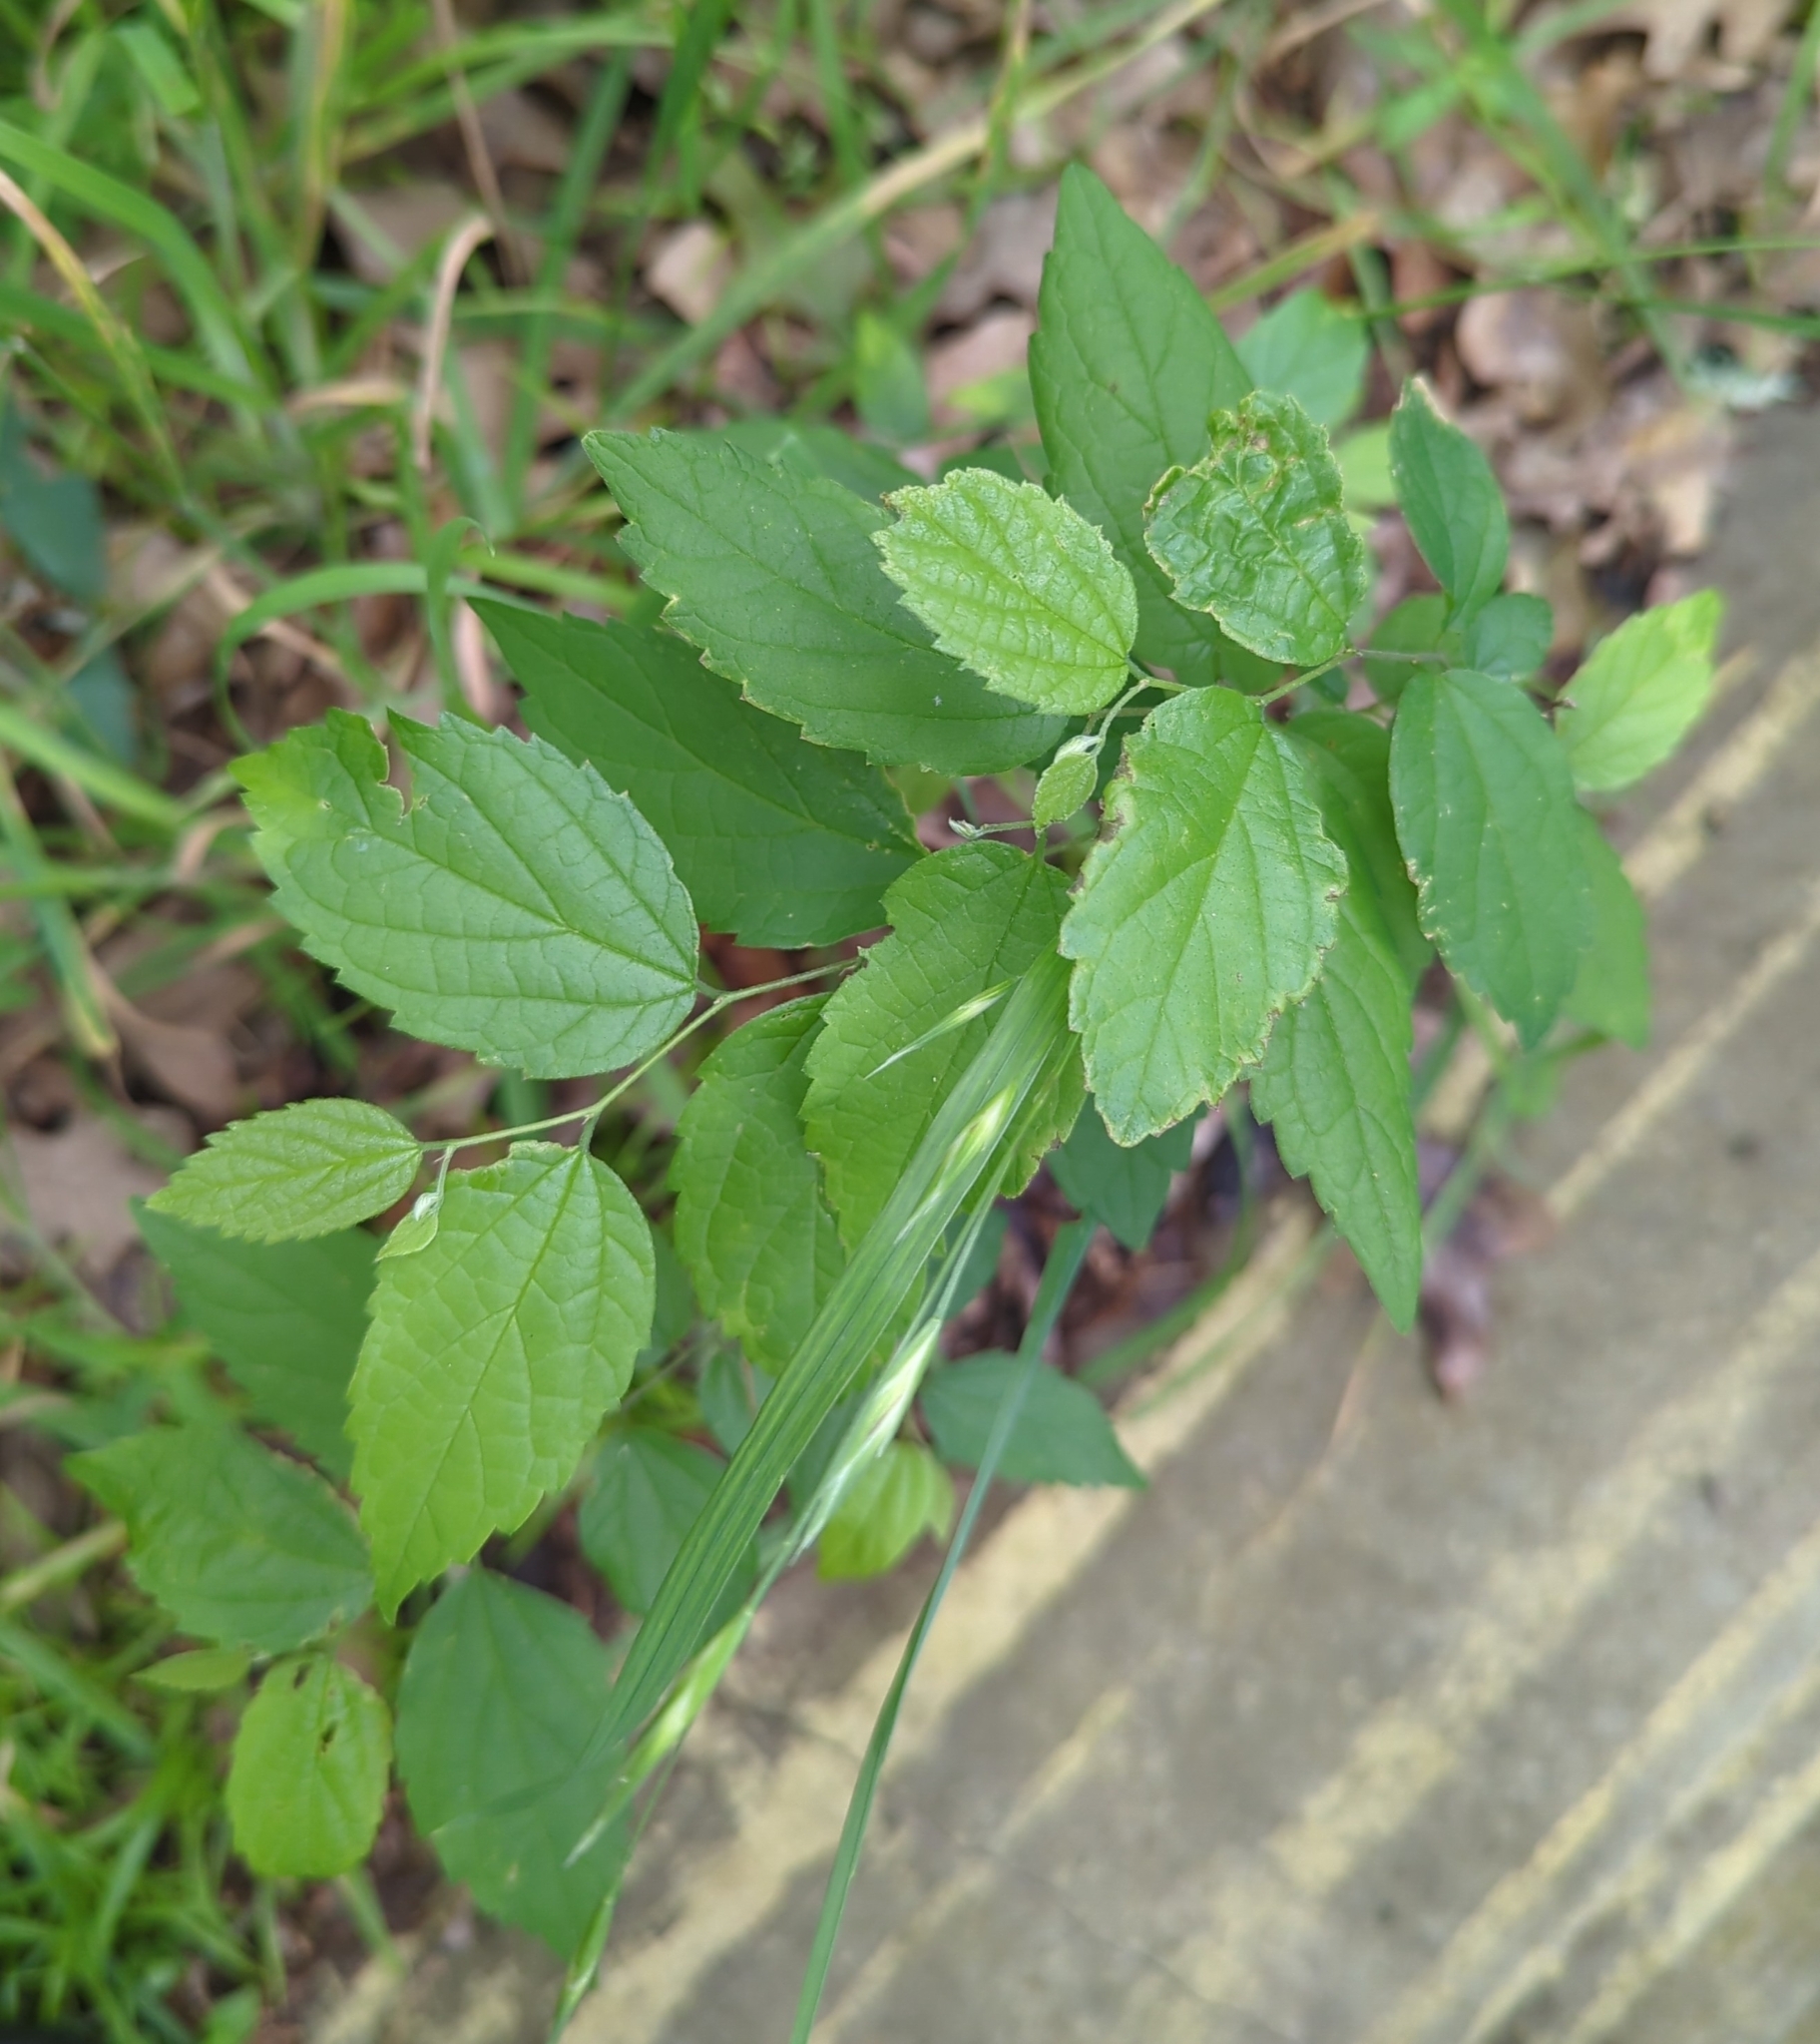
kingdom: Plantae
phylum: Tracheophyta
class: Magnoliopsida
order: Rosales
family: Cannabaceae
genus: Celtis
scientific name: Celtis laevigata
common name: Sugarberry
